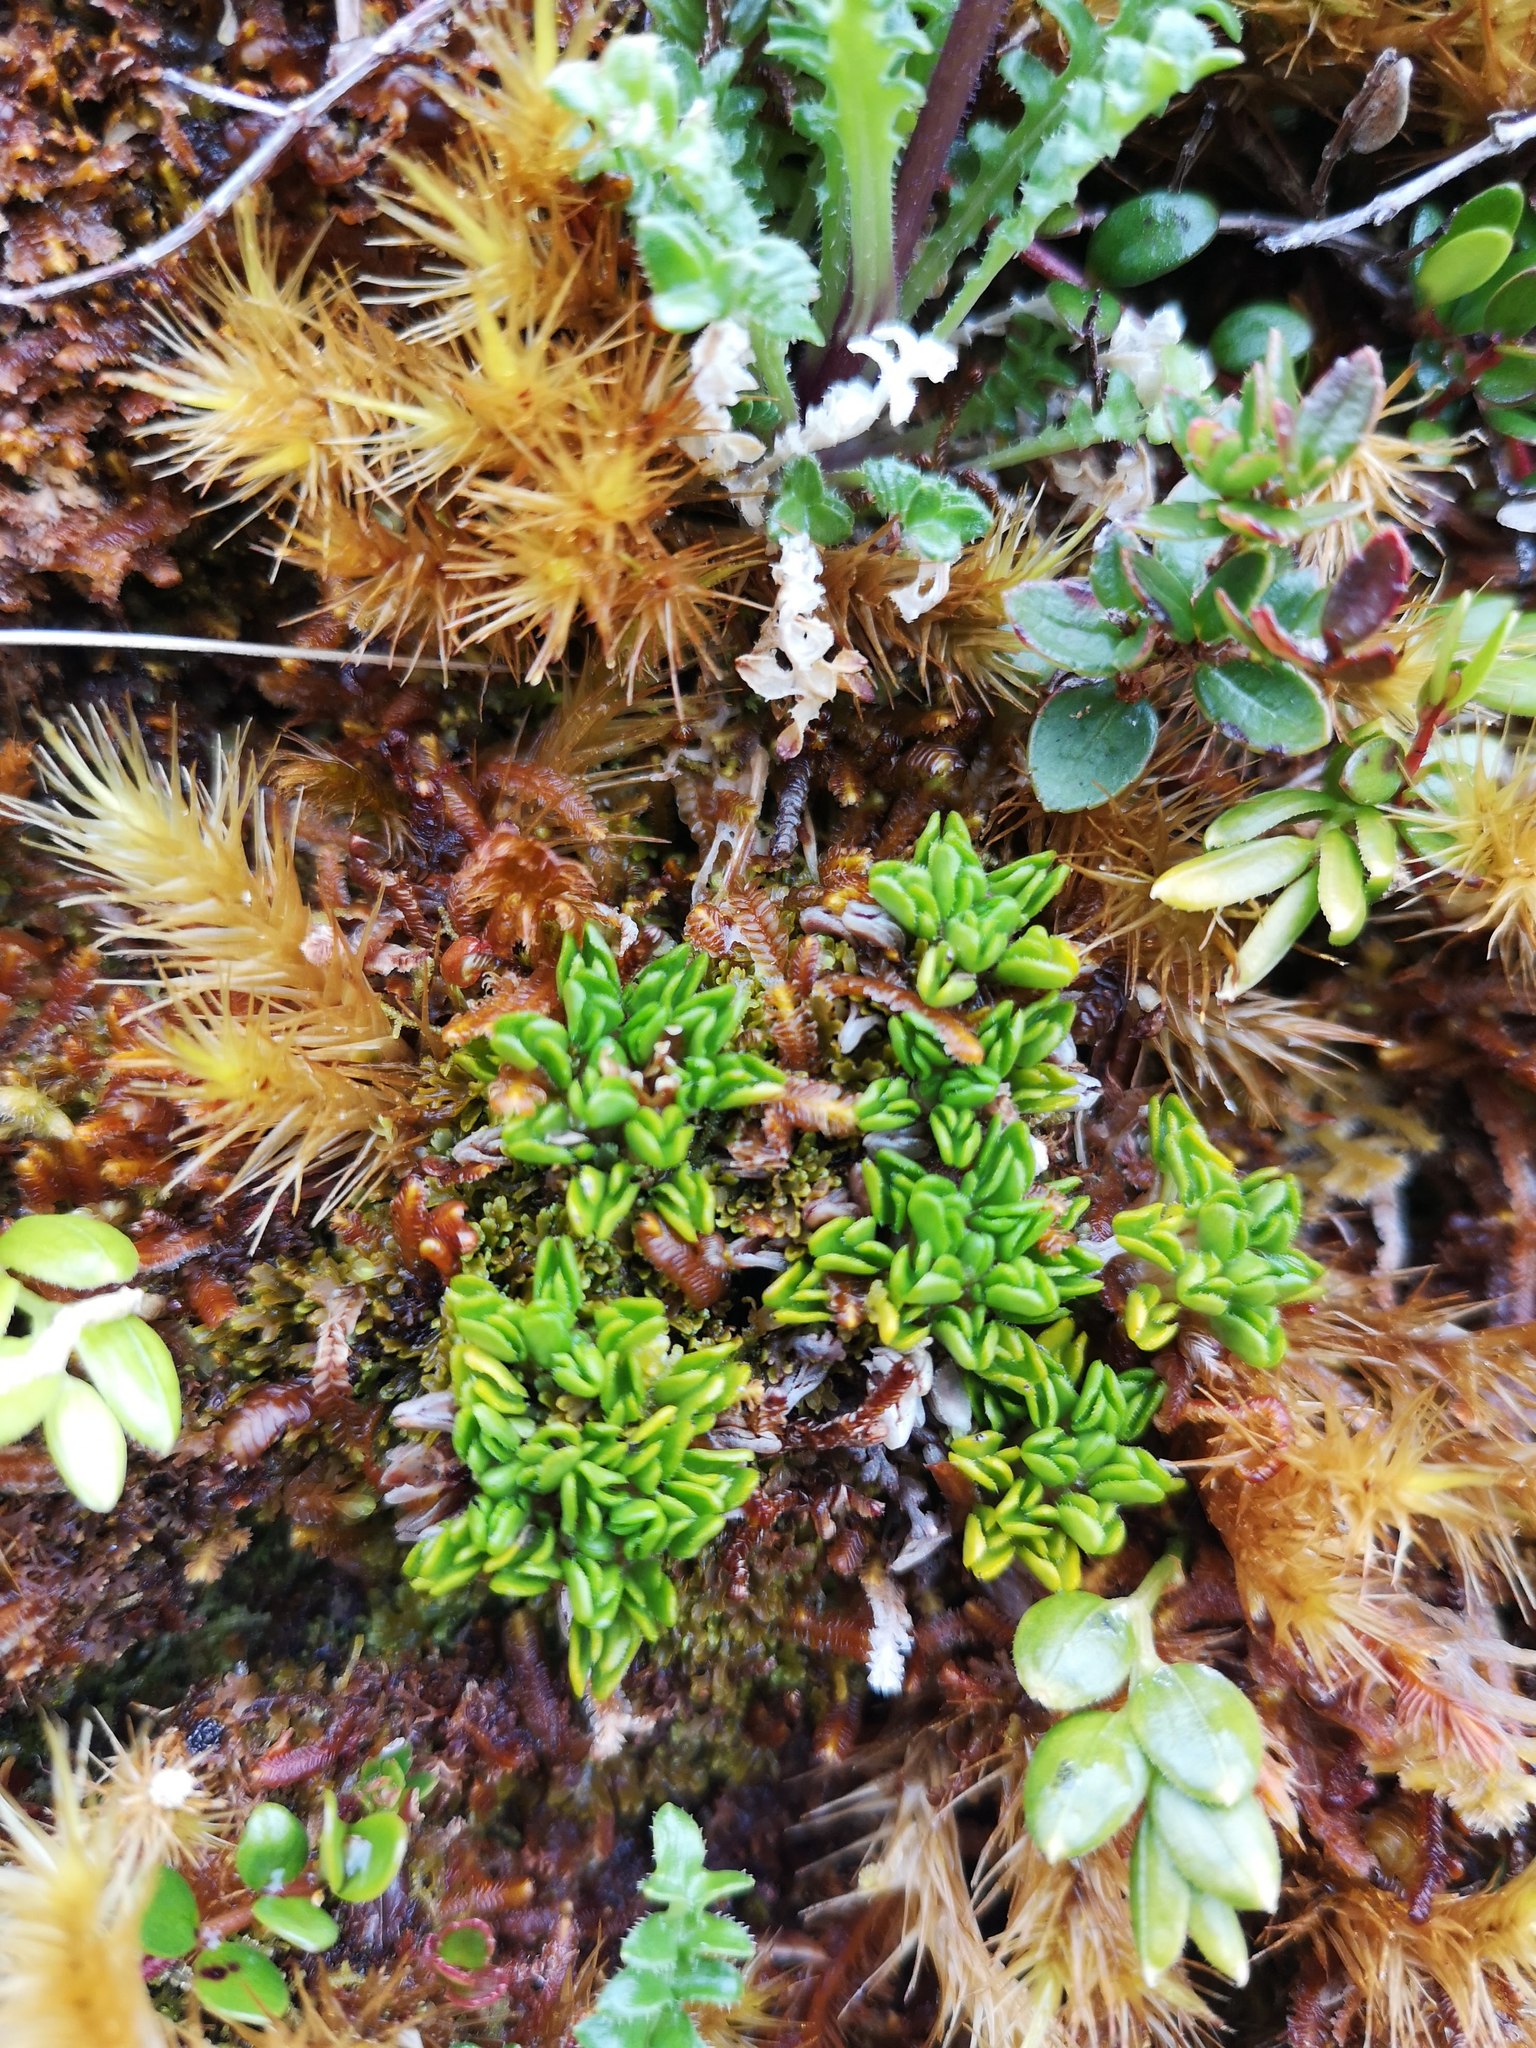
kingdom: Plantae
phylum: Tracheophyta
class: Magnoliopsida
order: Ranunculales
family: Ranunculaceae
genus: Caltha
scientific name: Caltha dionaeifolia
